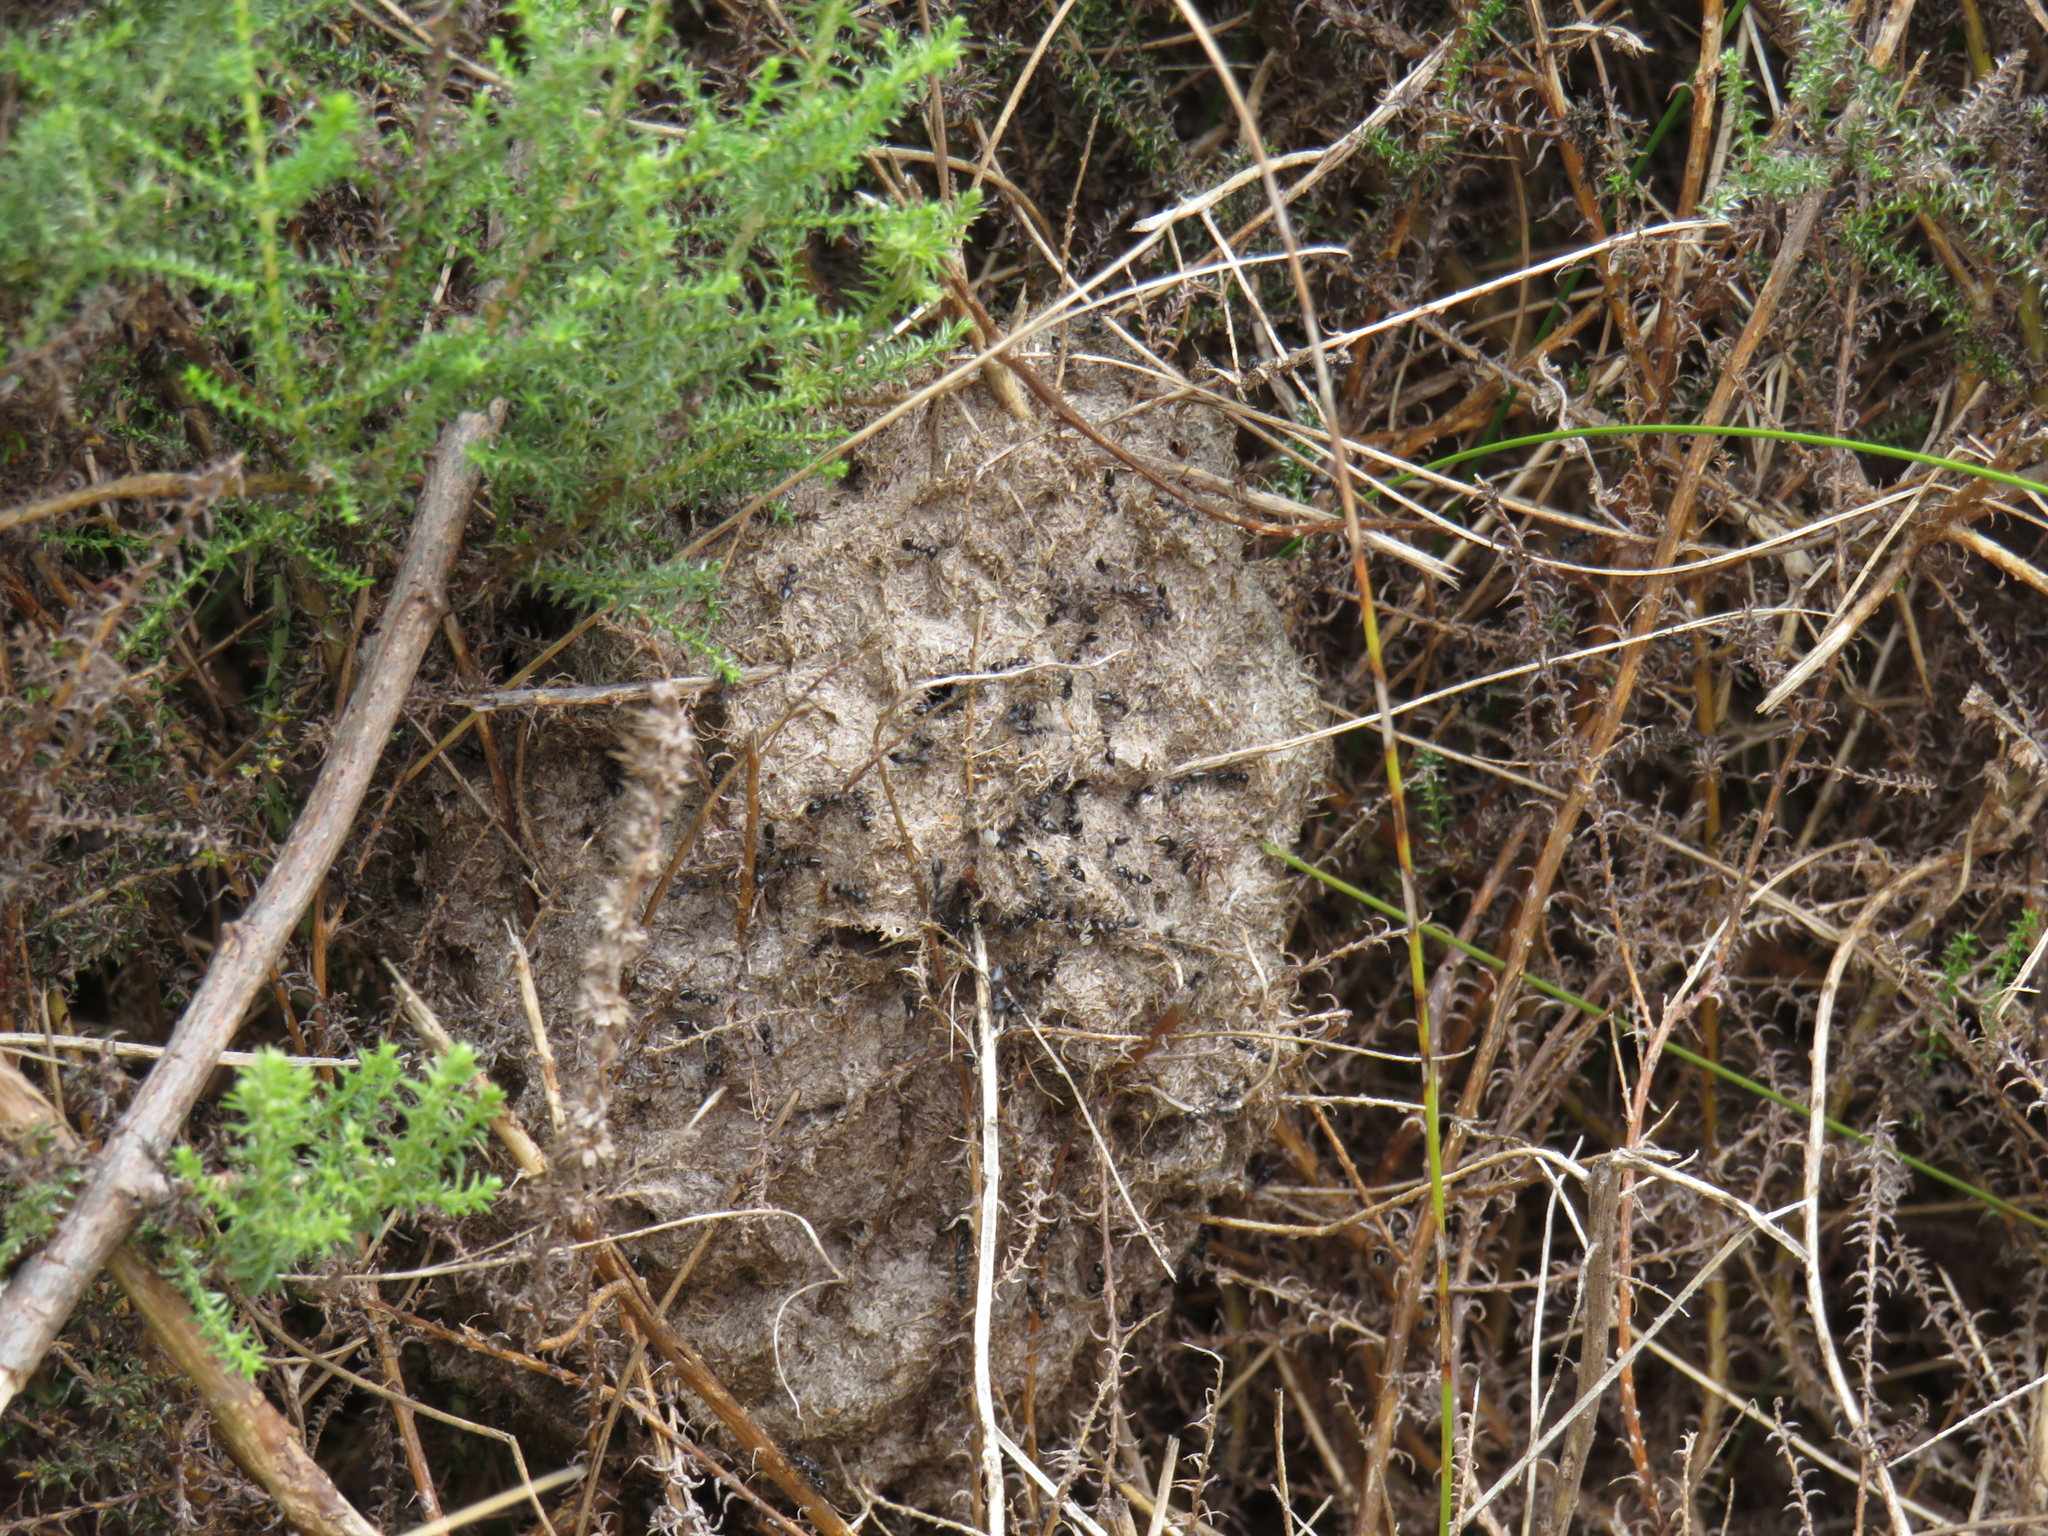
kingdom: Animalia
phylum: Arthropoda
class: Insecta
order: Hymenoptera
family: Formicidae
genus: Crematogaster
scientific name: Crematogaster peringueyi
